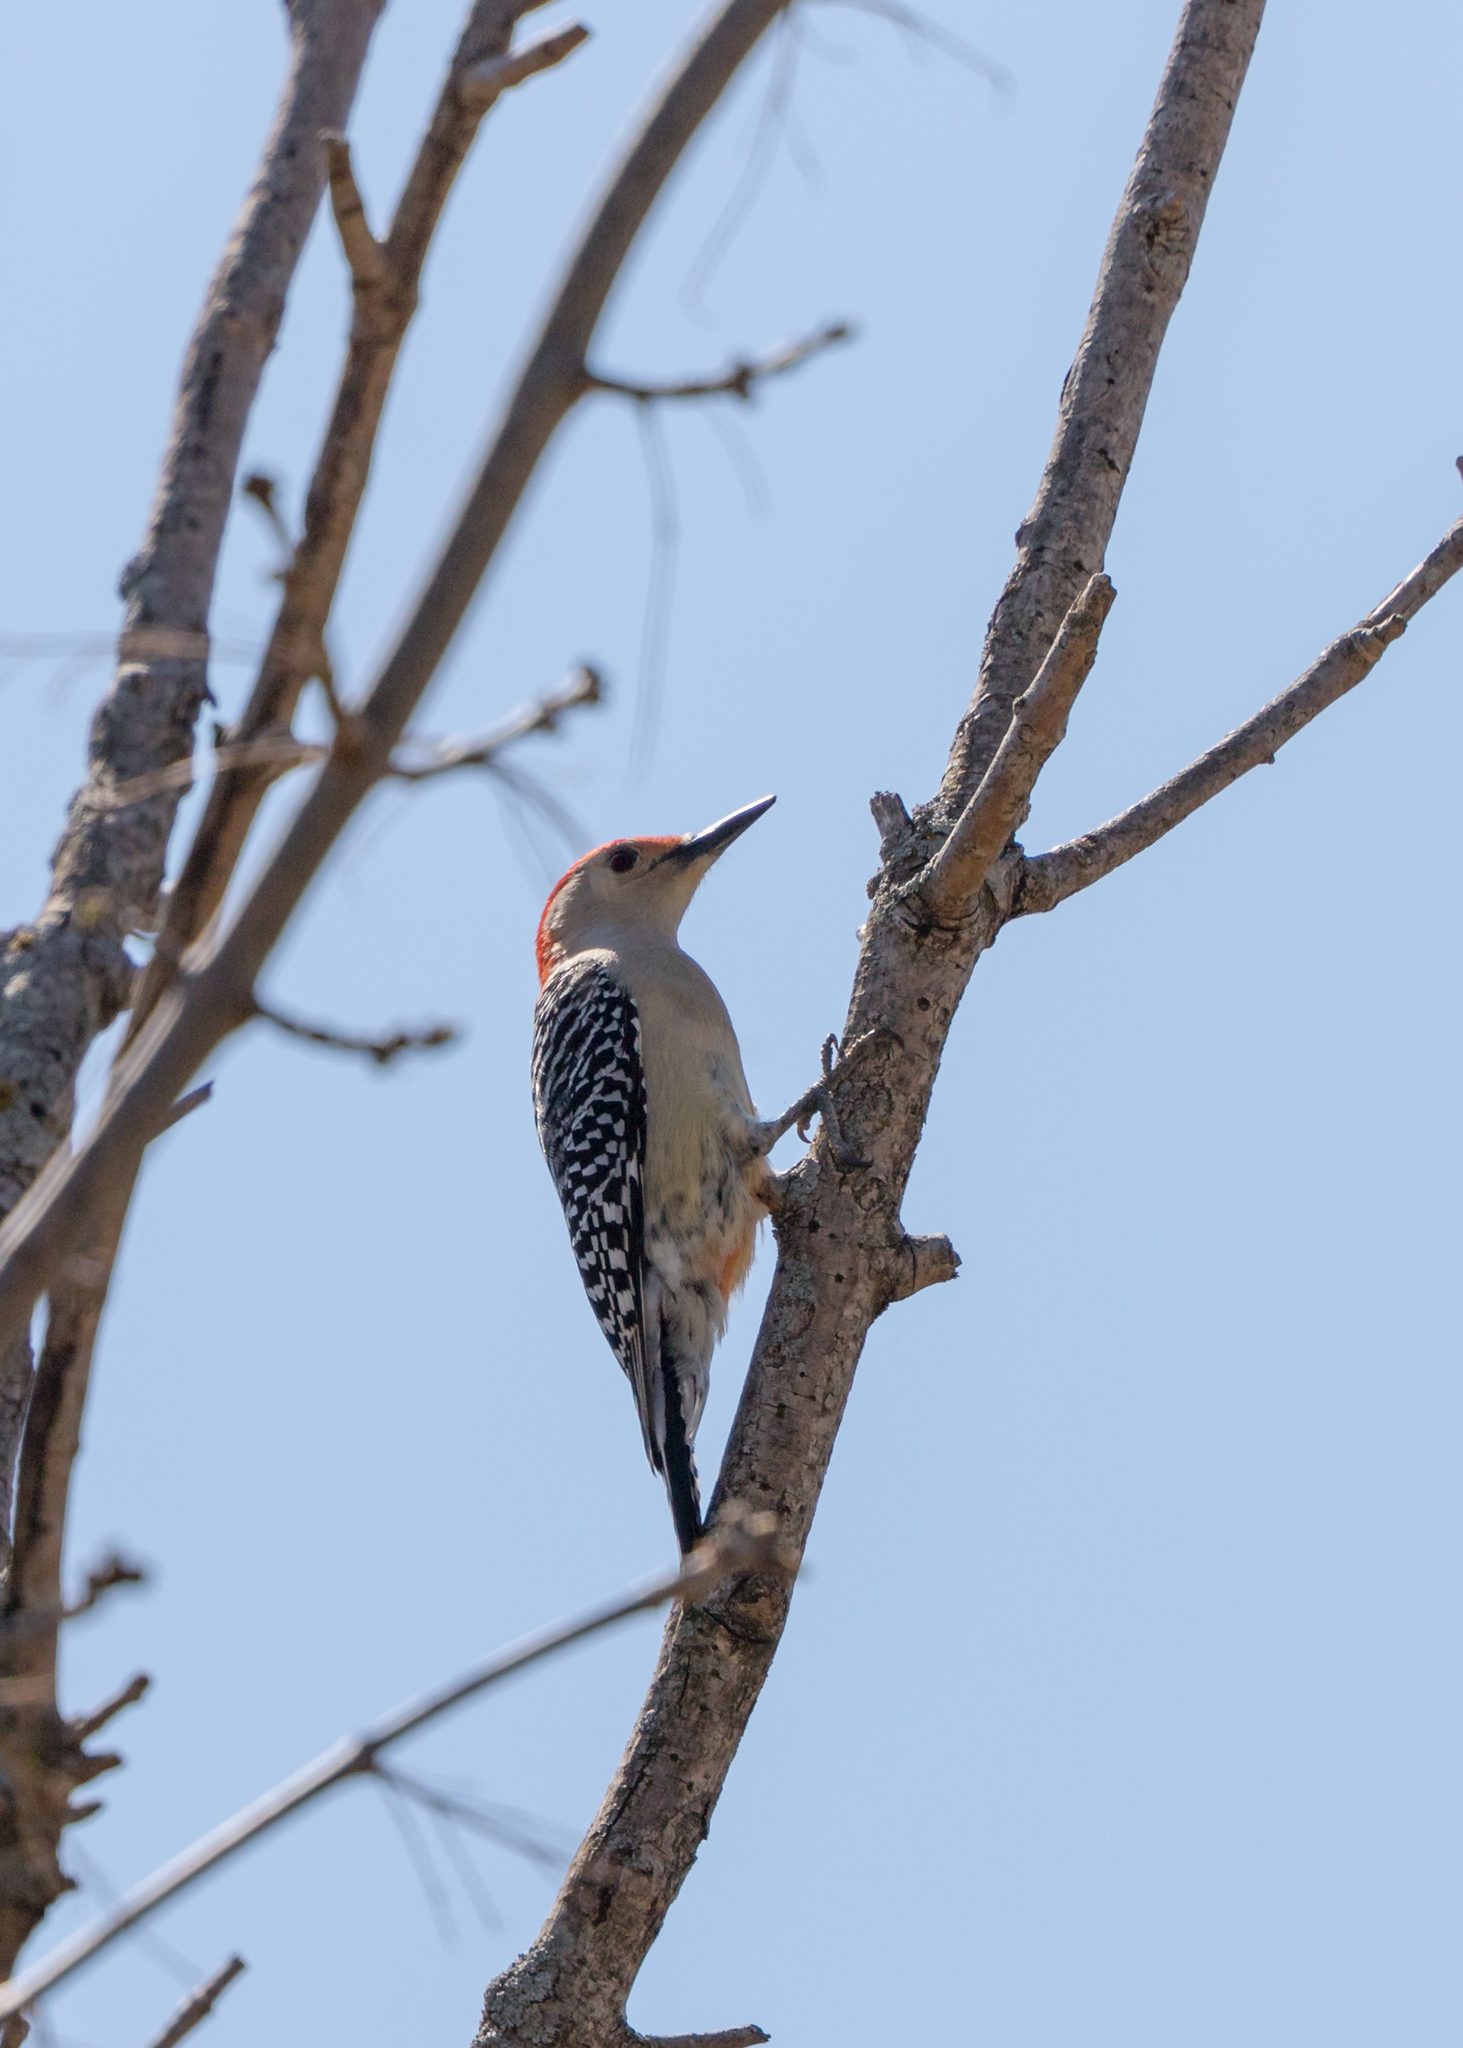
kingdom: Animalia
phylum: Chordata
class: Aves
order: Piciformes
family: Picidae
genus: Melanerpes
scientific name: Melanerpes carolinus
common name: Red-bellied woodpecker
